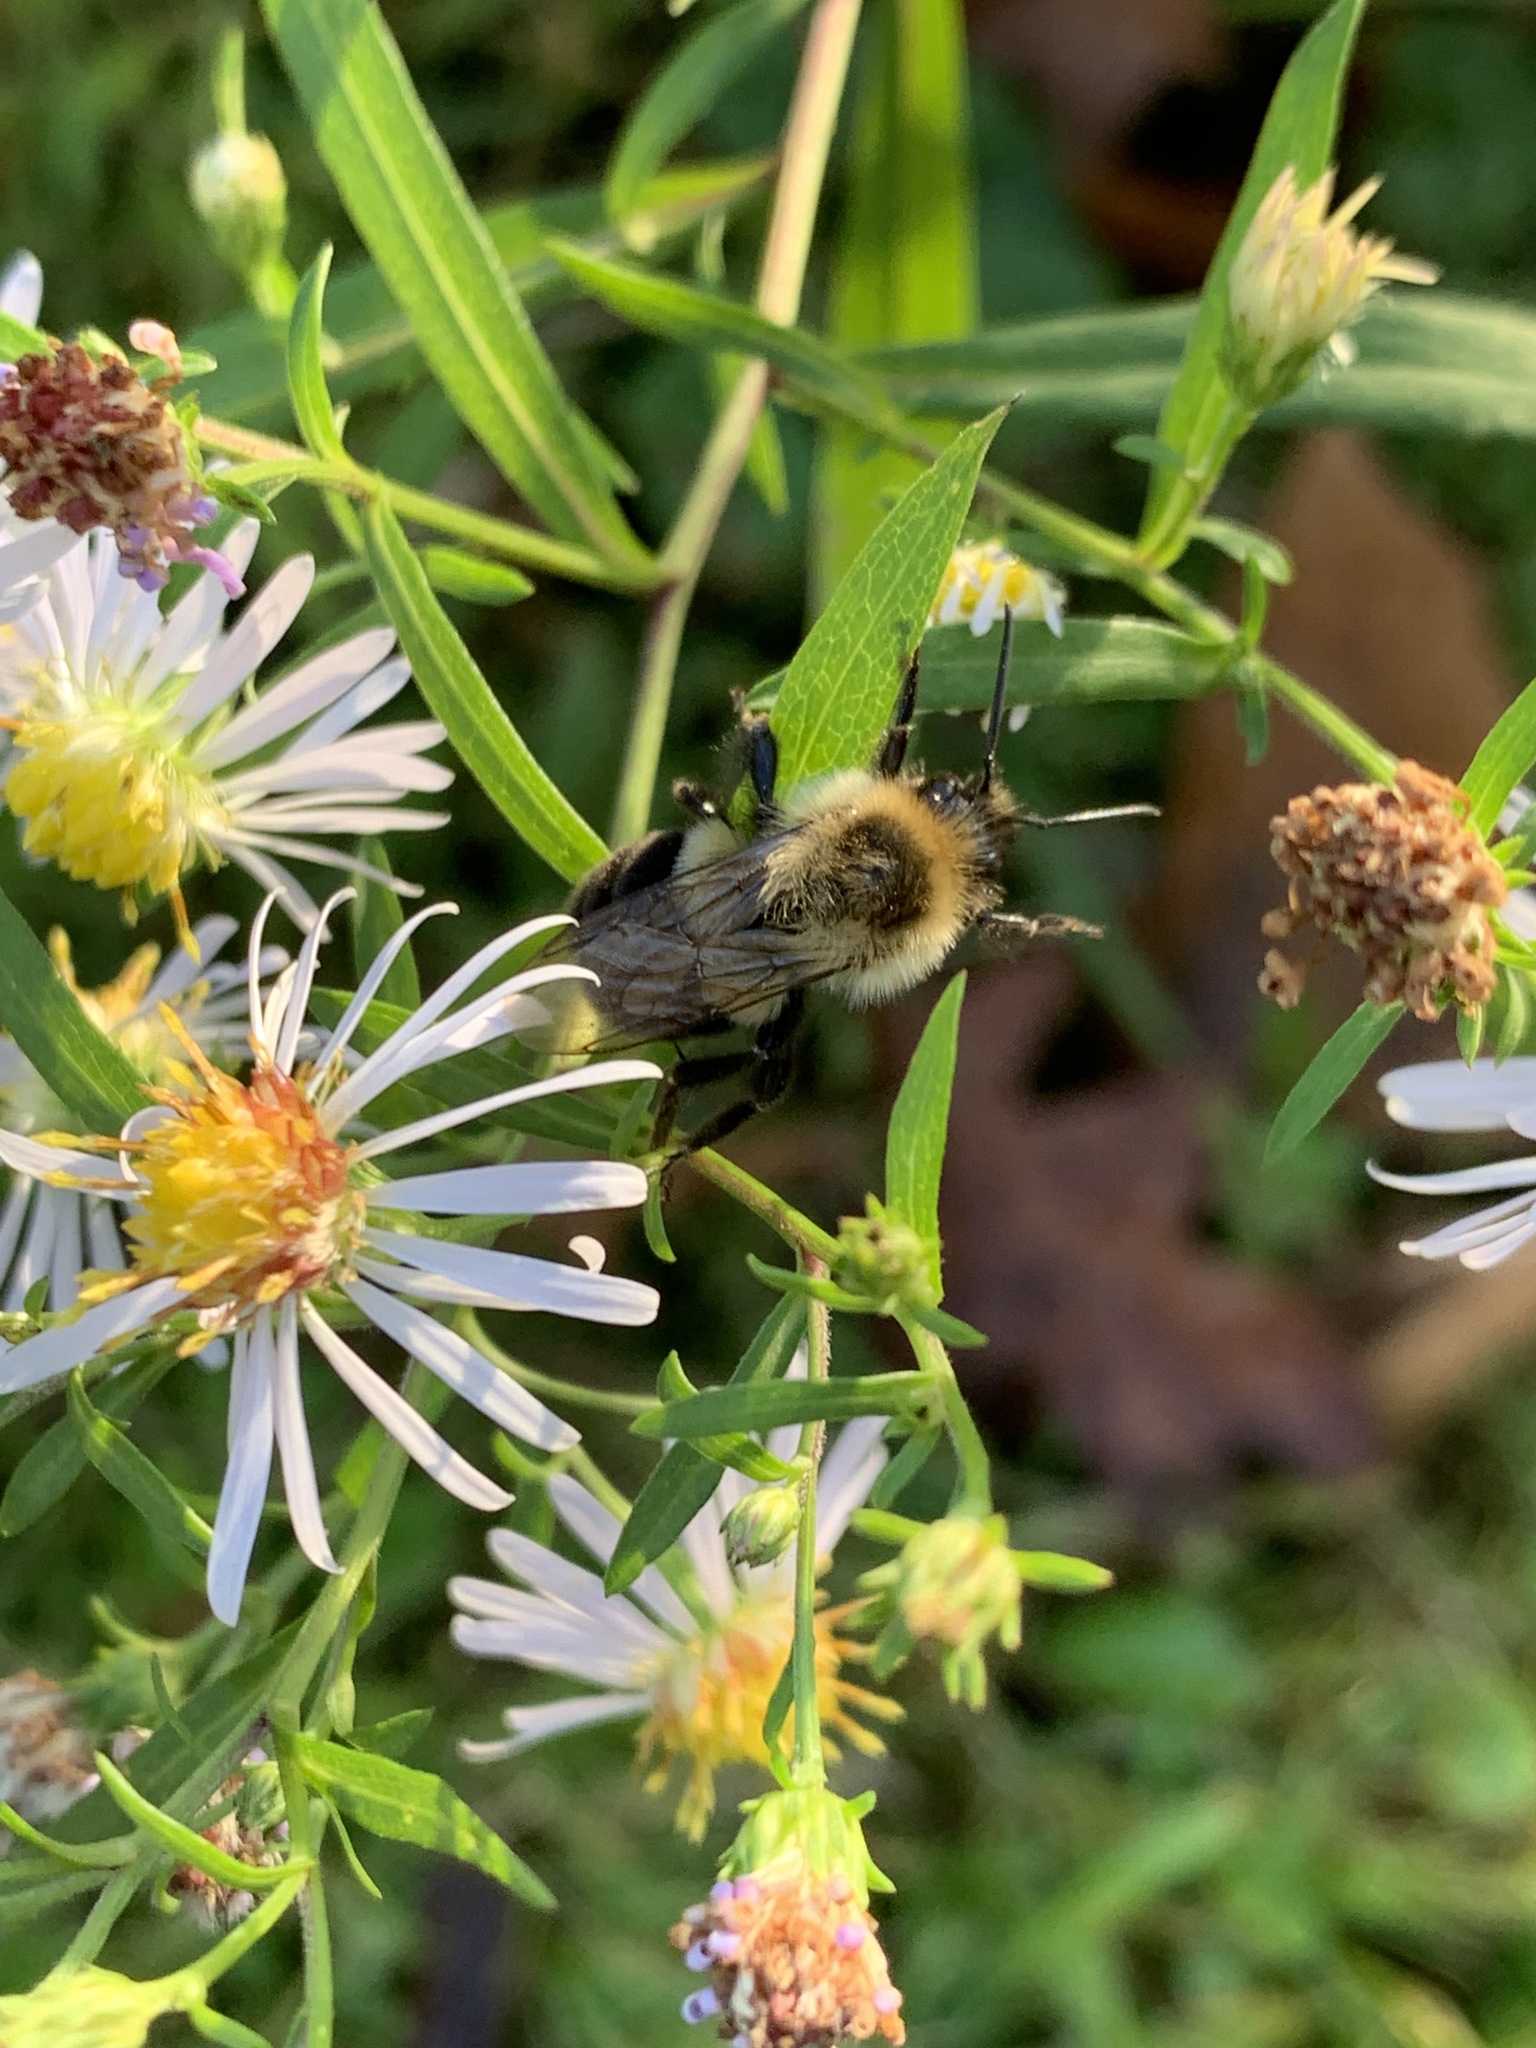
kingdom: Animalia
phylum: Arthropoda
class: Insecta
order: Hymenoptera
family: Apidae
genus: Bombus
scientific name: Bombus impatiens
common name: Common eastern bumble bee
